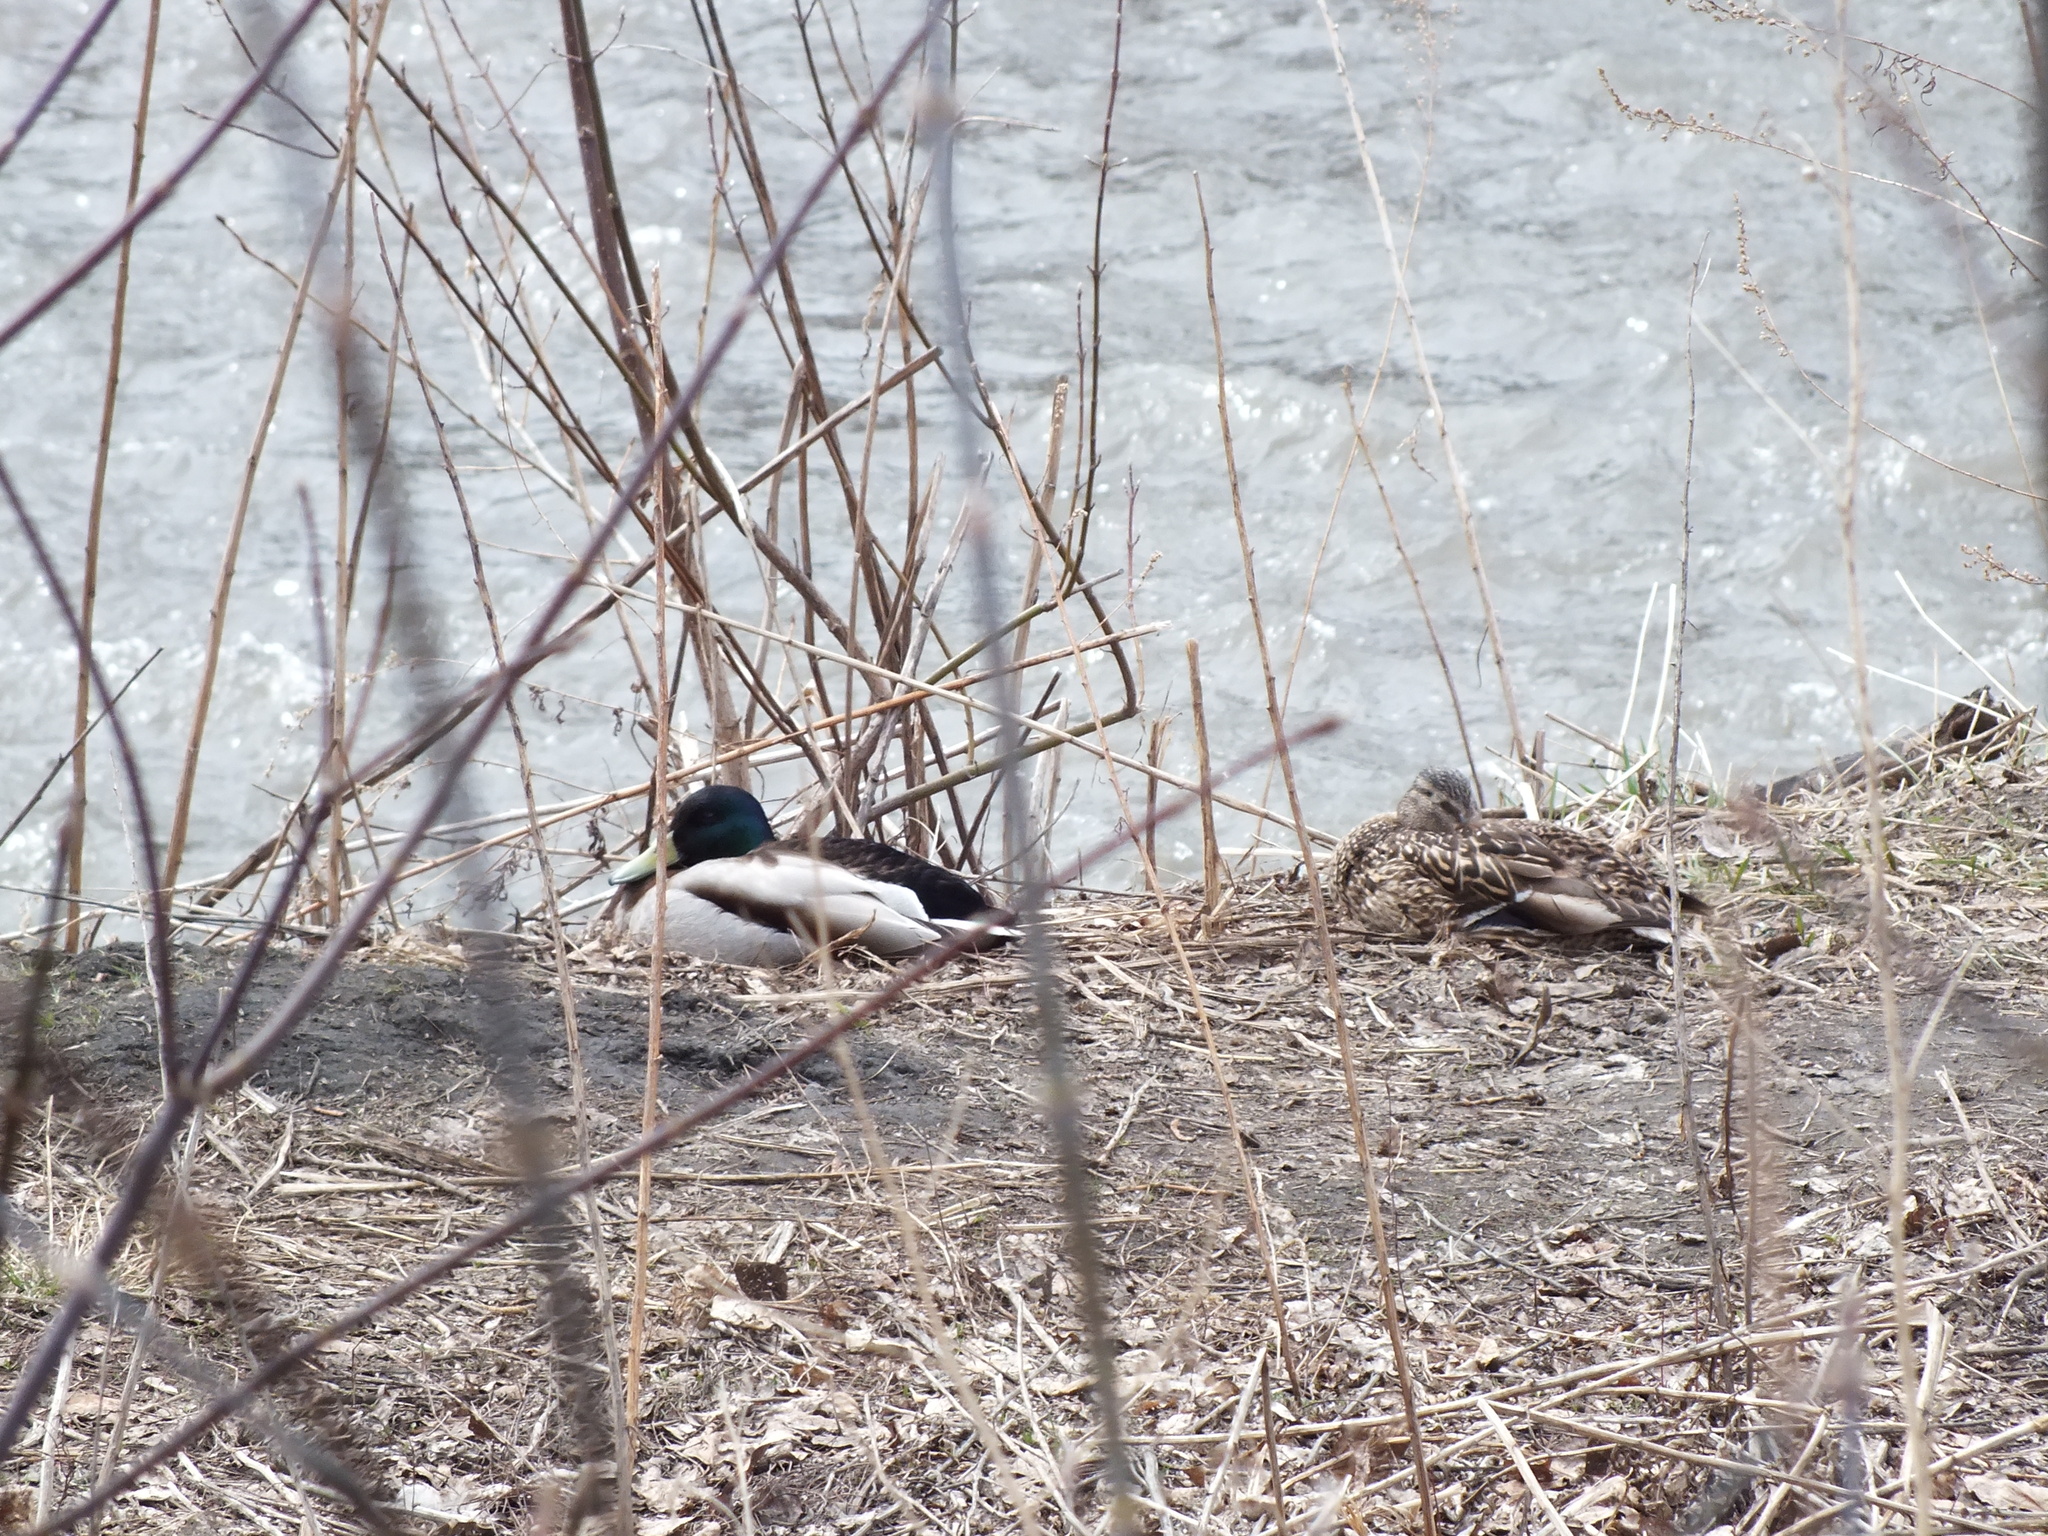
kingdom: Animalia
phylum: Chordata
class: Aves
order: Anseriformes
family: Anatidae
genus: Anas
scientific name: Anas platyrhynchos
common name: Mallard
